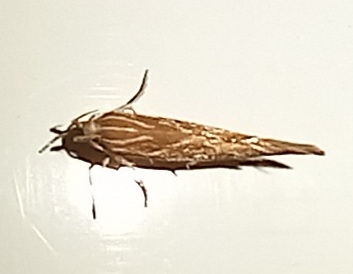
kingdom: Animalia
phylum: Arthropoda
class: Insecta
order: Lepidoptera
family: Cosmopterigidae
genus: Pyroderces
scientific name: Pyroderces argyrogrammos
